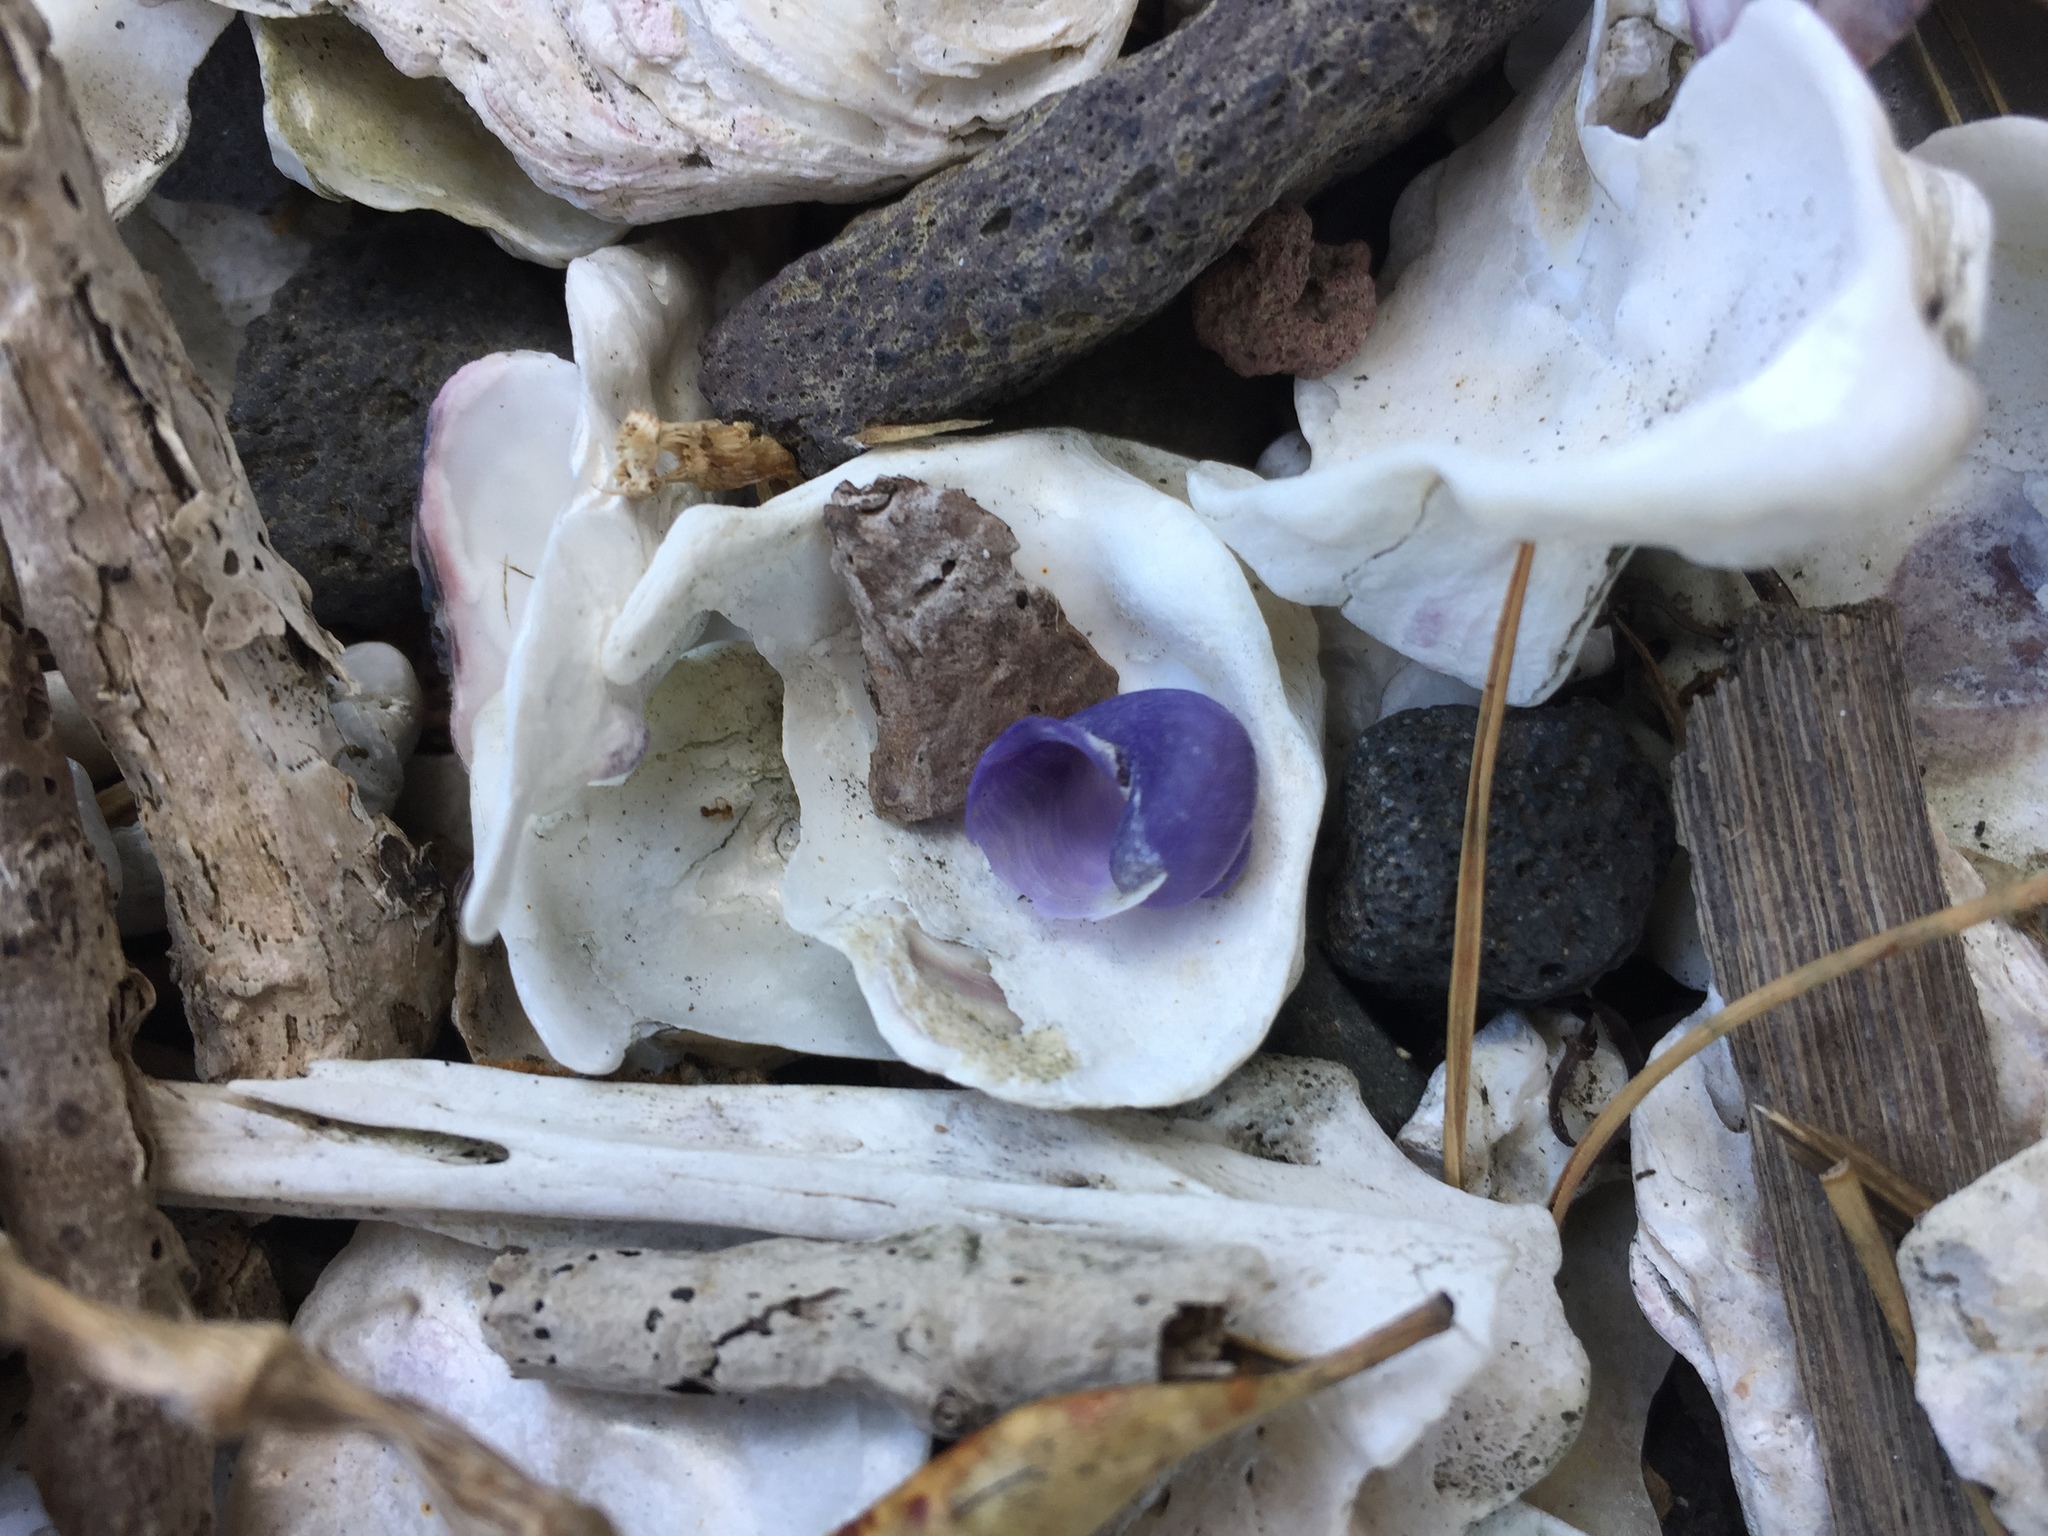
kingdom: Animalia
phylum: Mollusca
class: Gastropoda
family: Epitoniidae
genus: Janthina
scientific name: Janthina exigua
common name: Dwarf janthina
